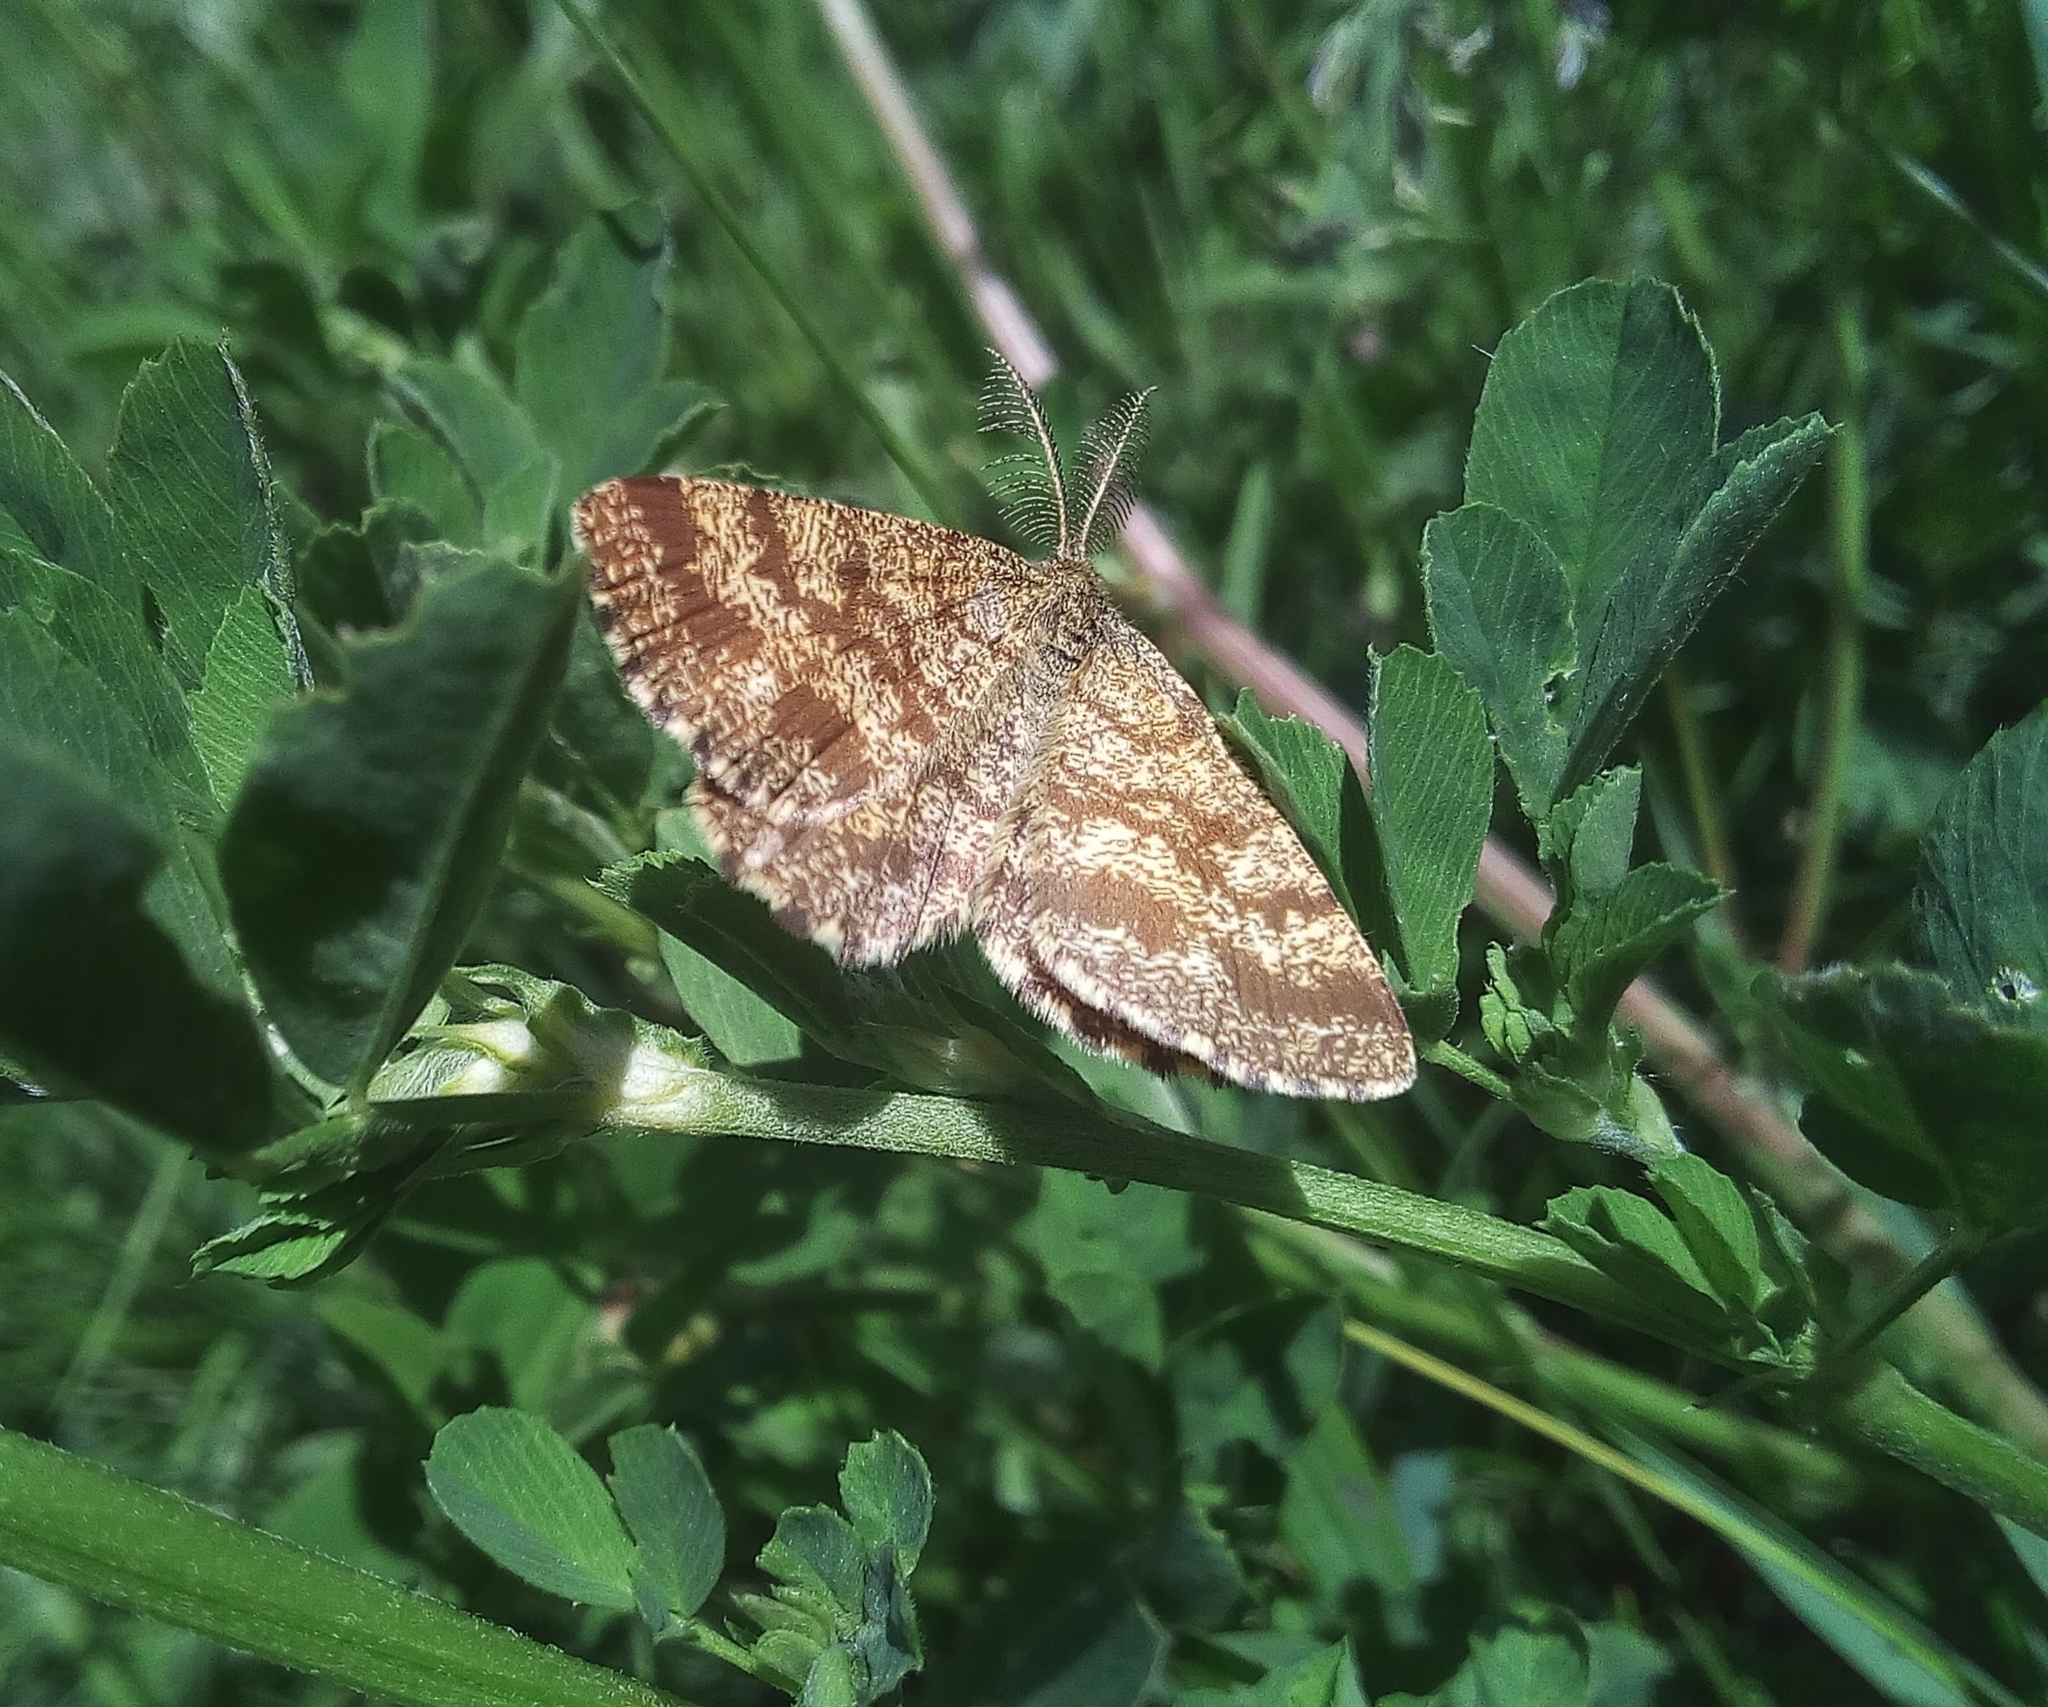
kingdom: Animalia
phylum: Arthropoda
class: Insecta
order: Lepidoptera
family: Geometridae
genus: Ematurga
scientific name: Ematurga atomaria
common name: Common heath
